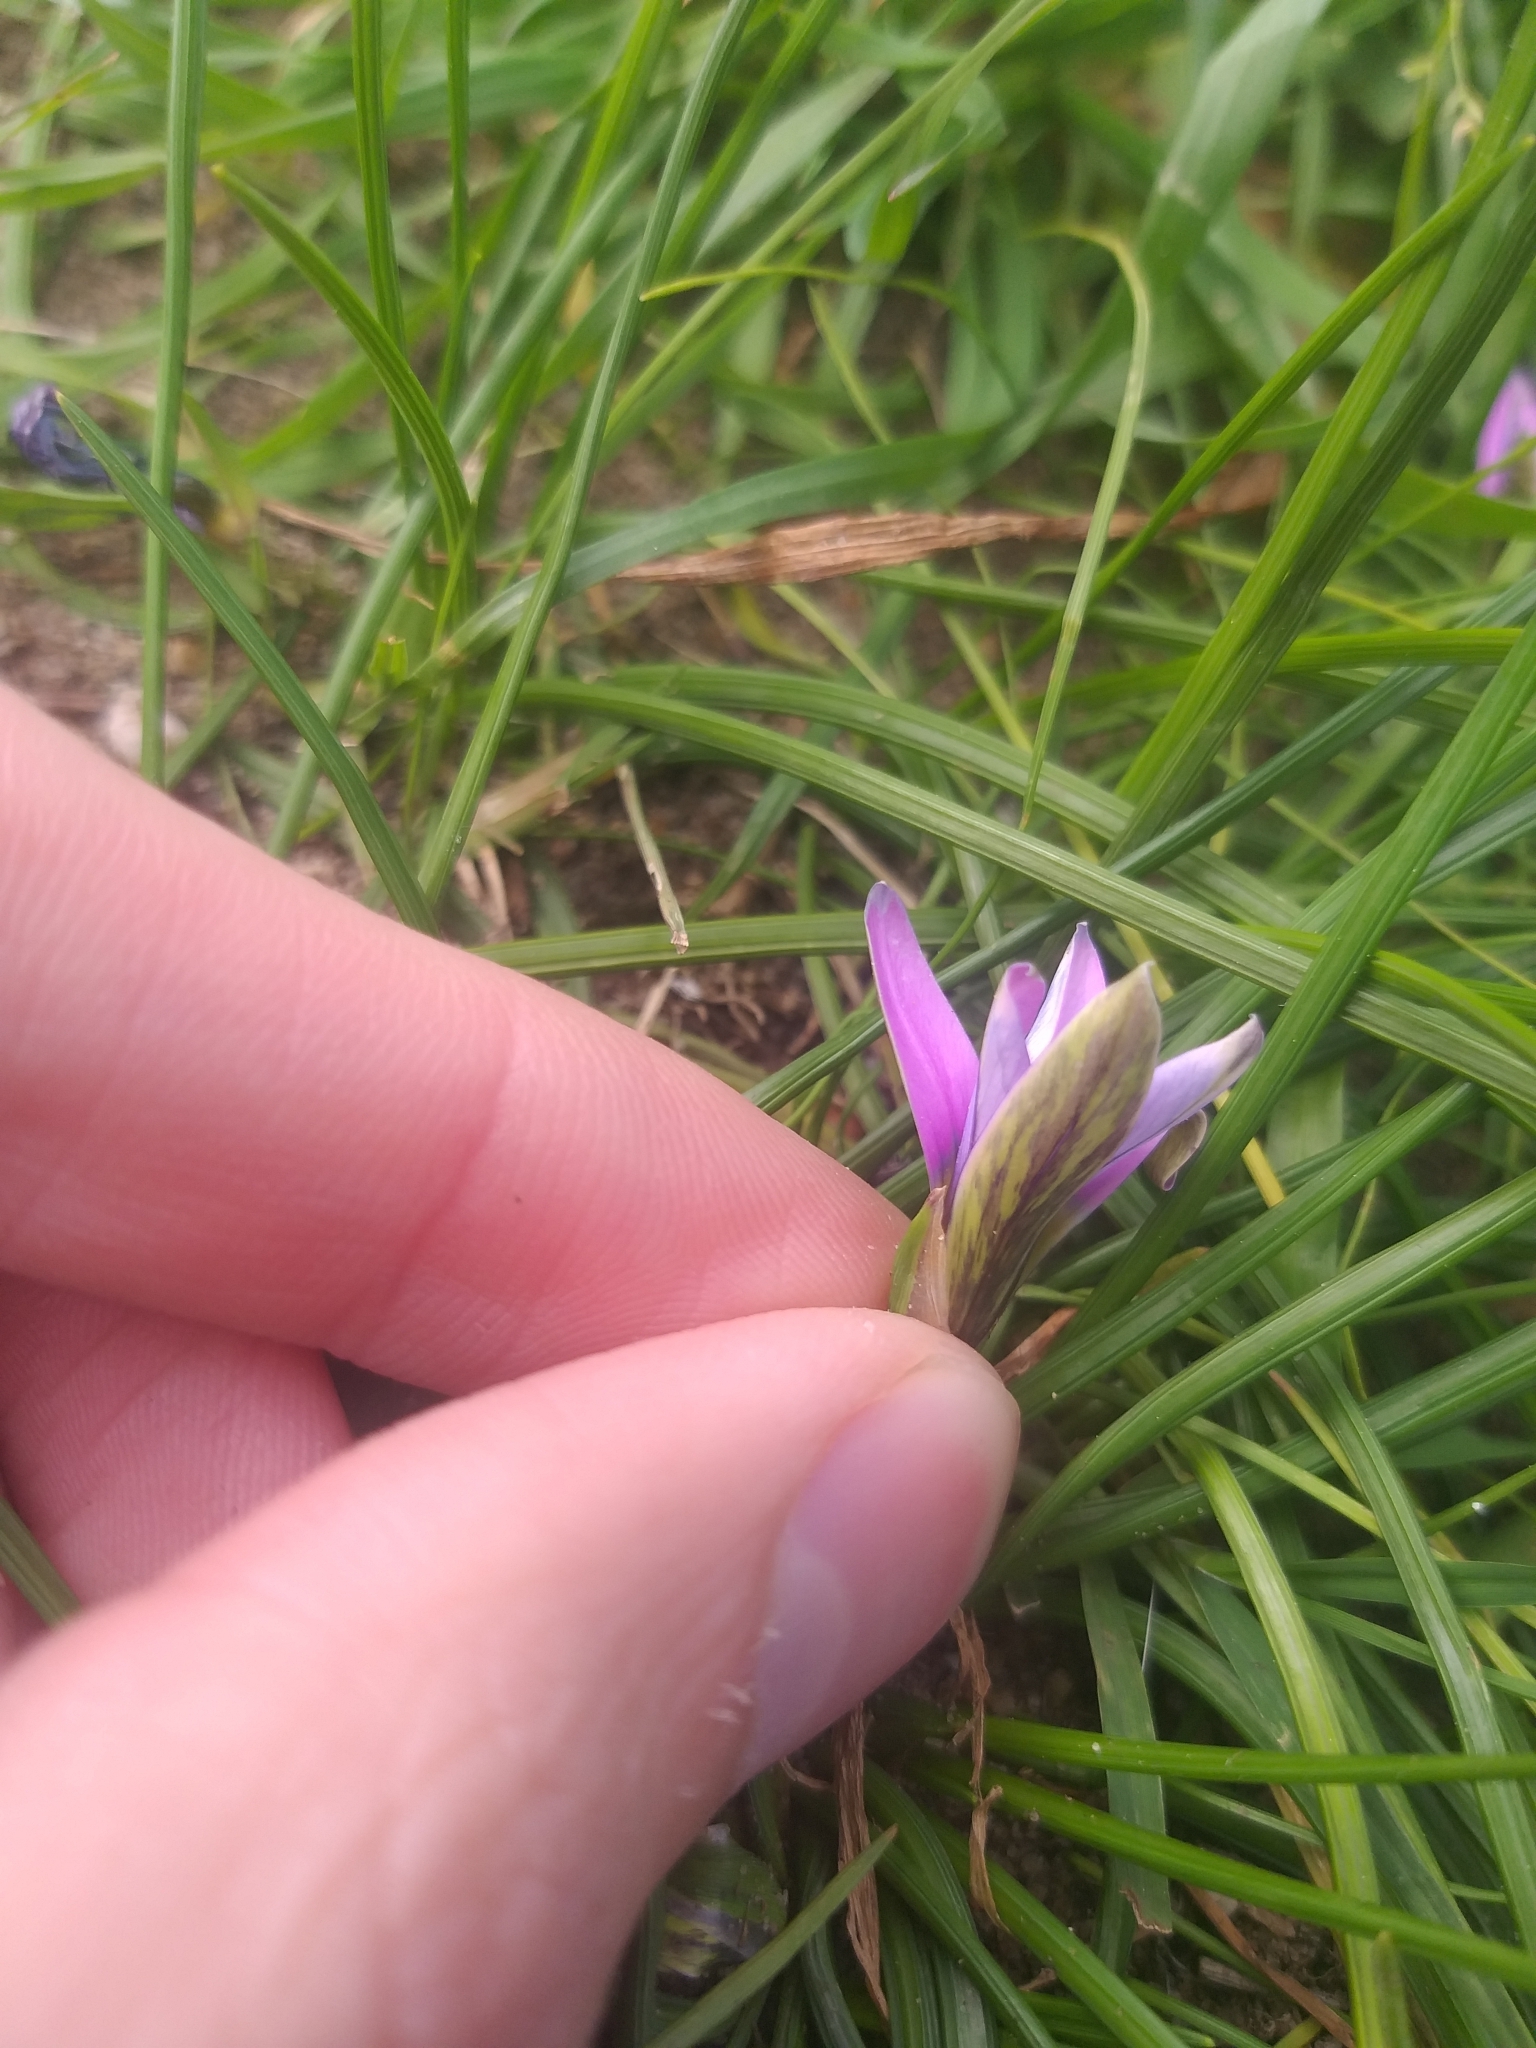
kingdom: Plantae
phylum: Tracheophyta
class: Liliopsida
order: Asparagales
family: Iridaceae
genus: Romulea
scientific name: Romulea rosea
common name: Oniongrass
